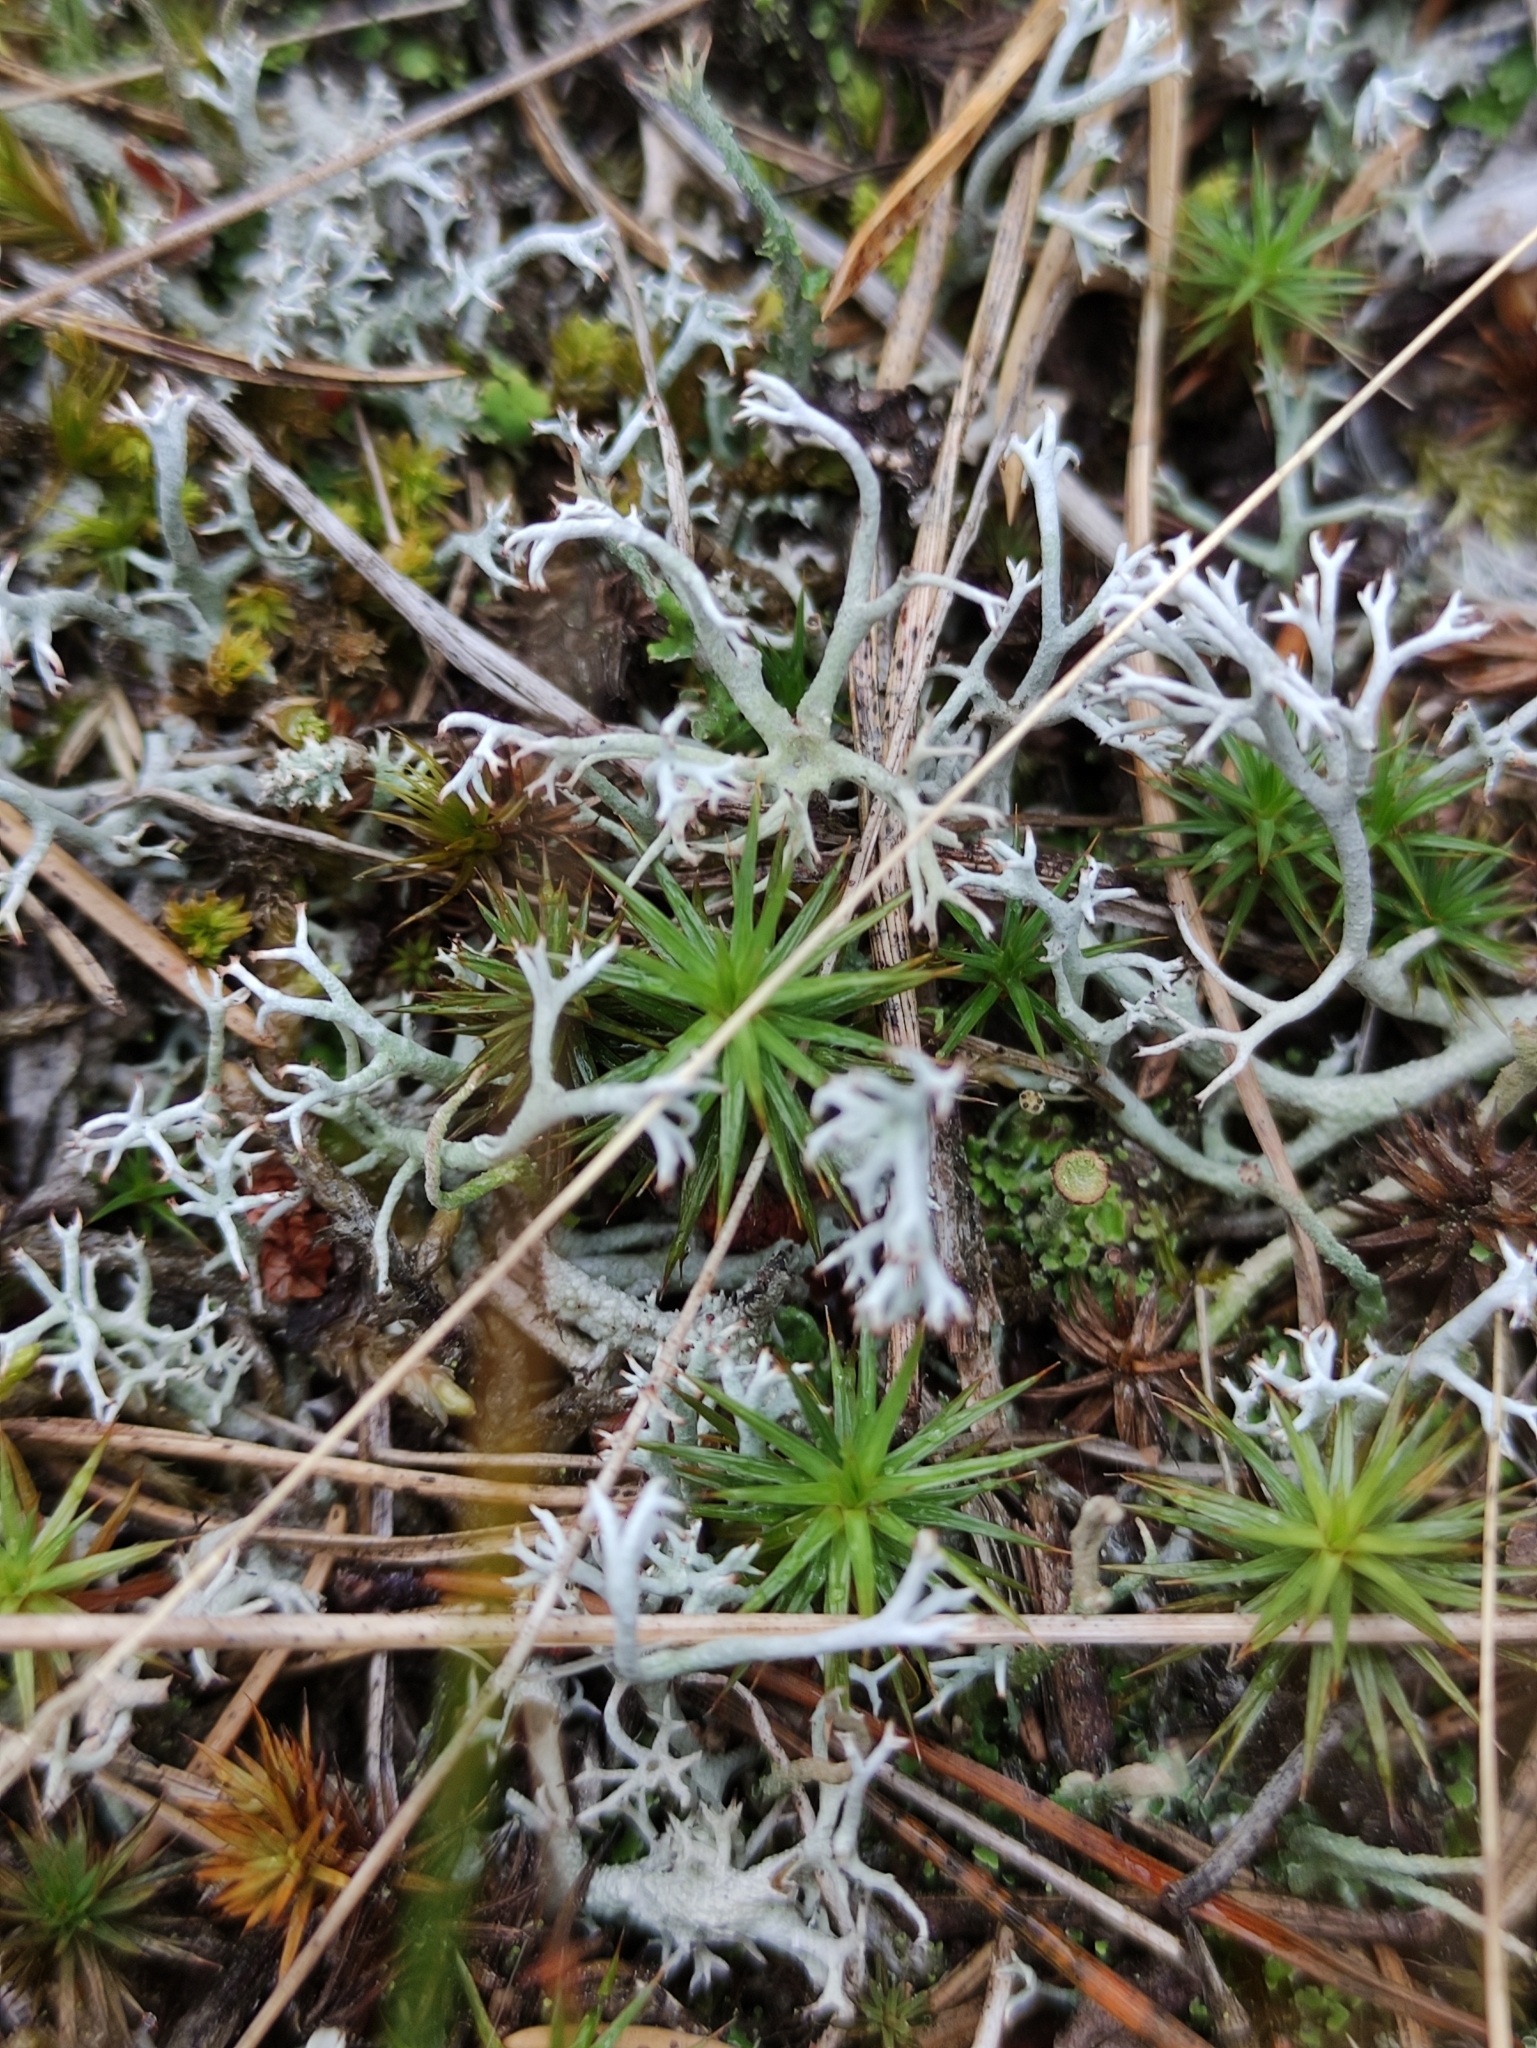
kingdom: Fungi
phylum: Ascomycota
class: Lecanoromycetes
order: Lecanorales
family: Cladoniaceae
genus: Cladonia
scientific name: Cladonia rangiferina
